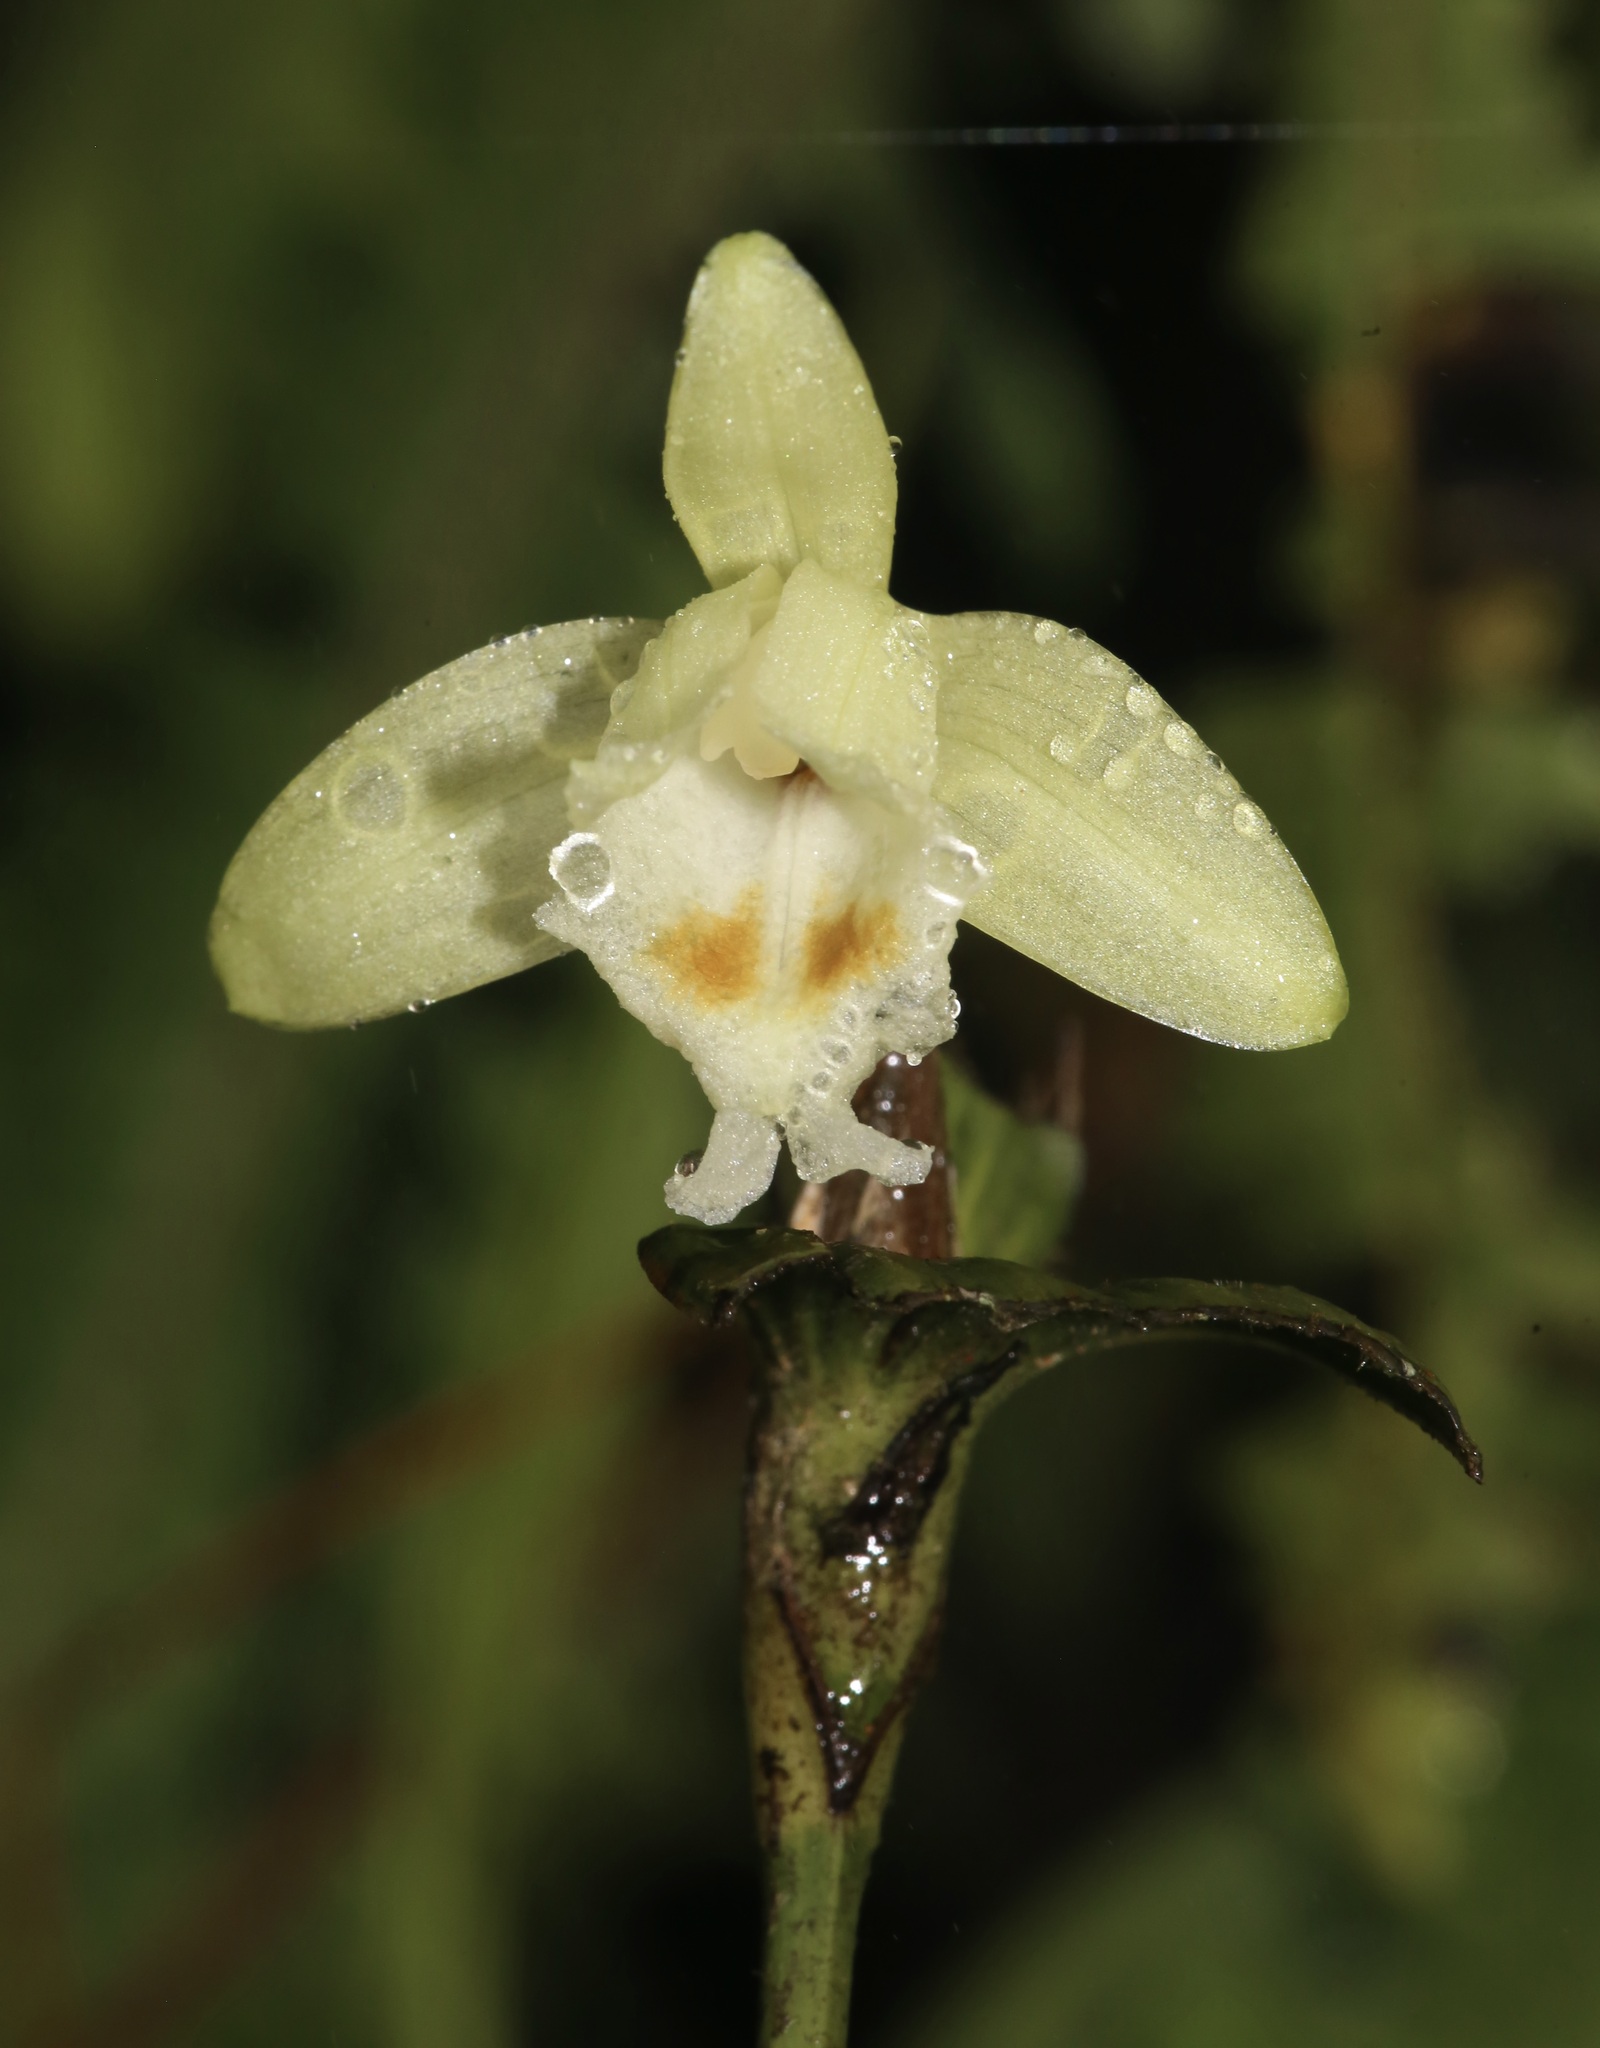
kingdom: Plantae
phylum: Tracheophyta
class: Liliopsida
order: Asparagales
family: Orchidaceae
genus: Sobralia
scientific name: Sobralia bimaculata
